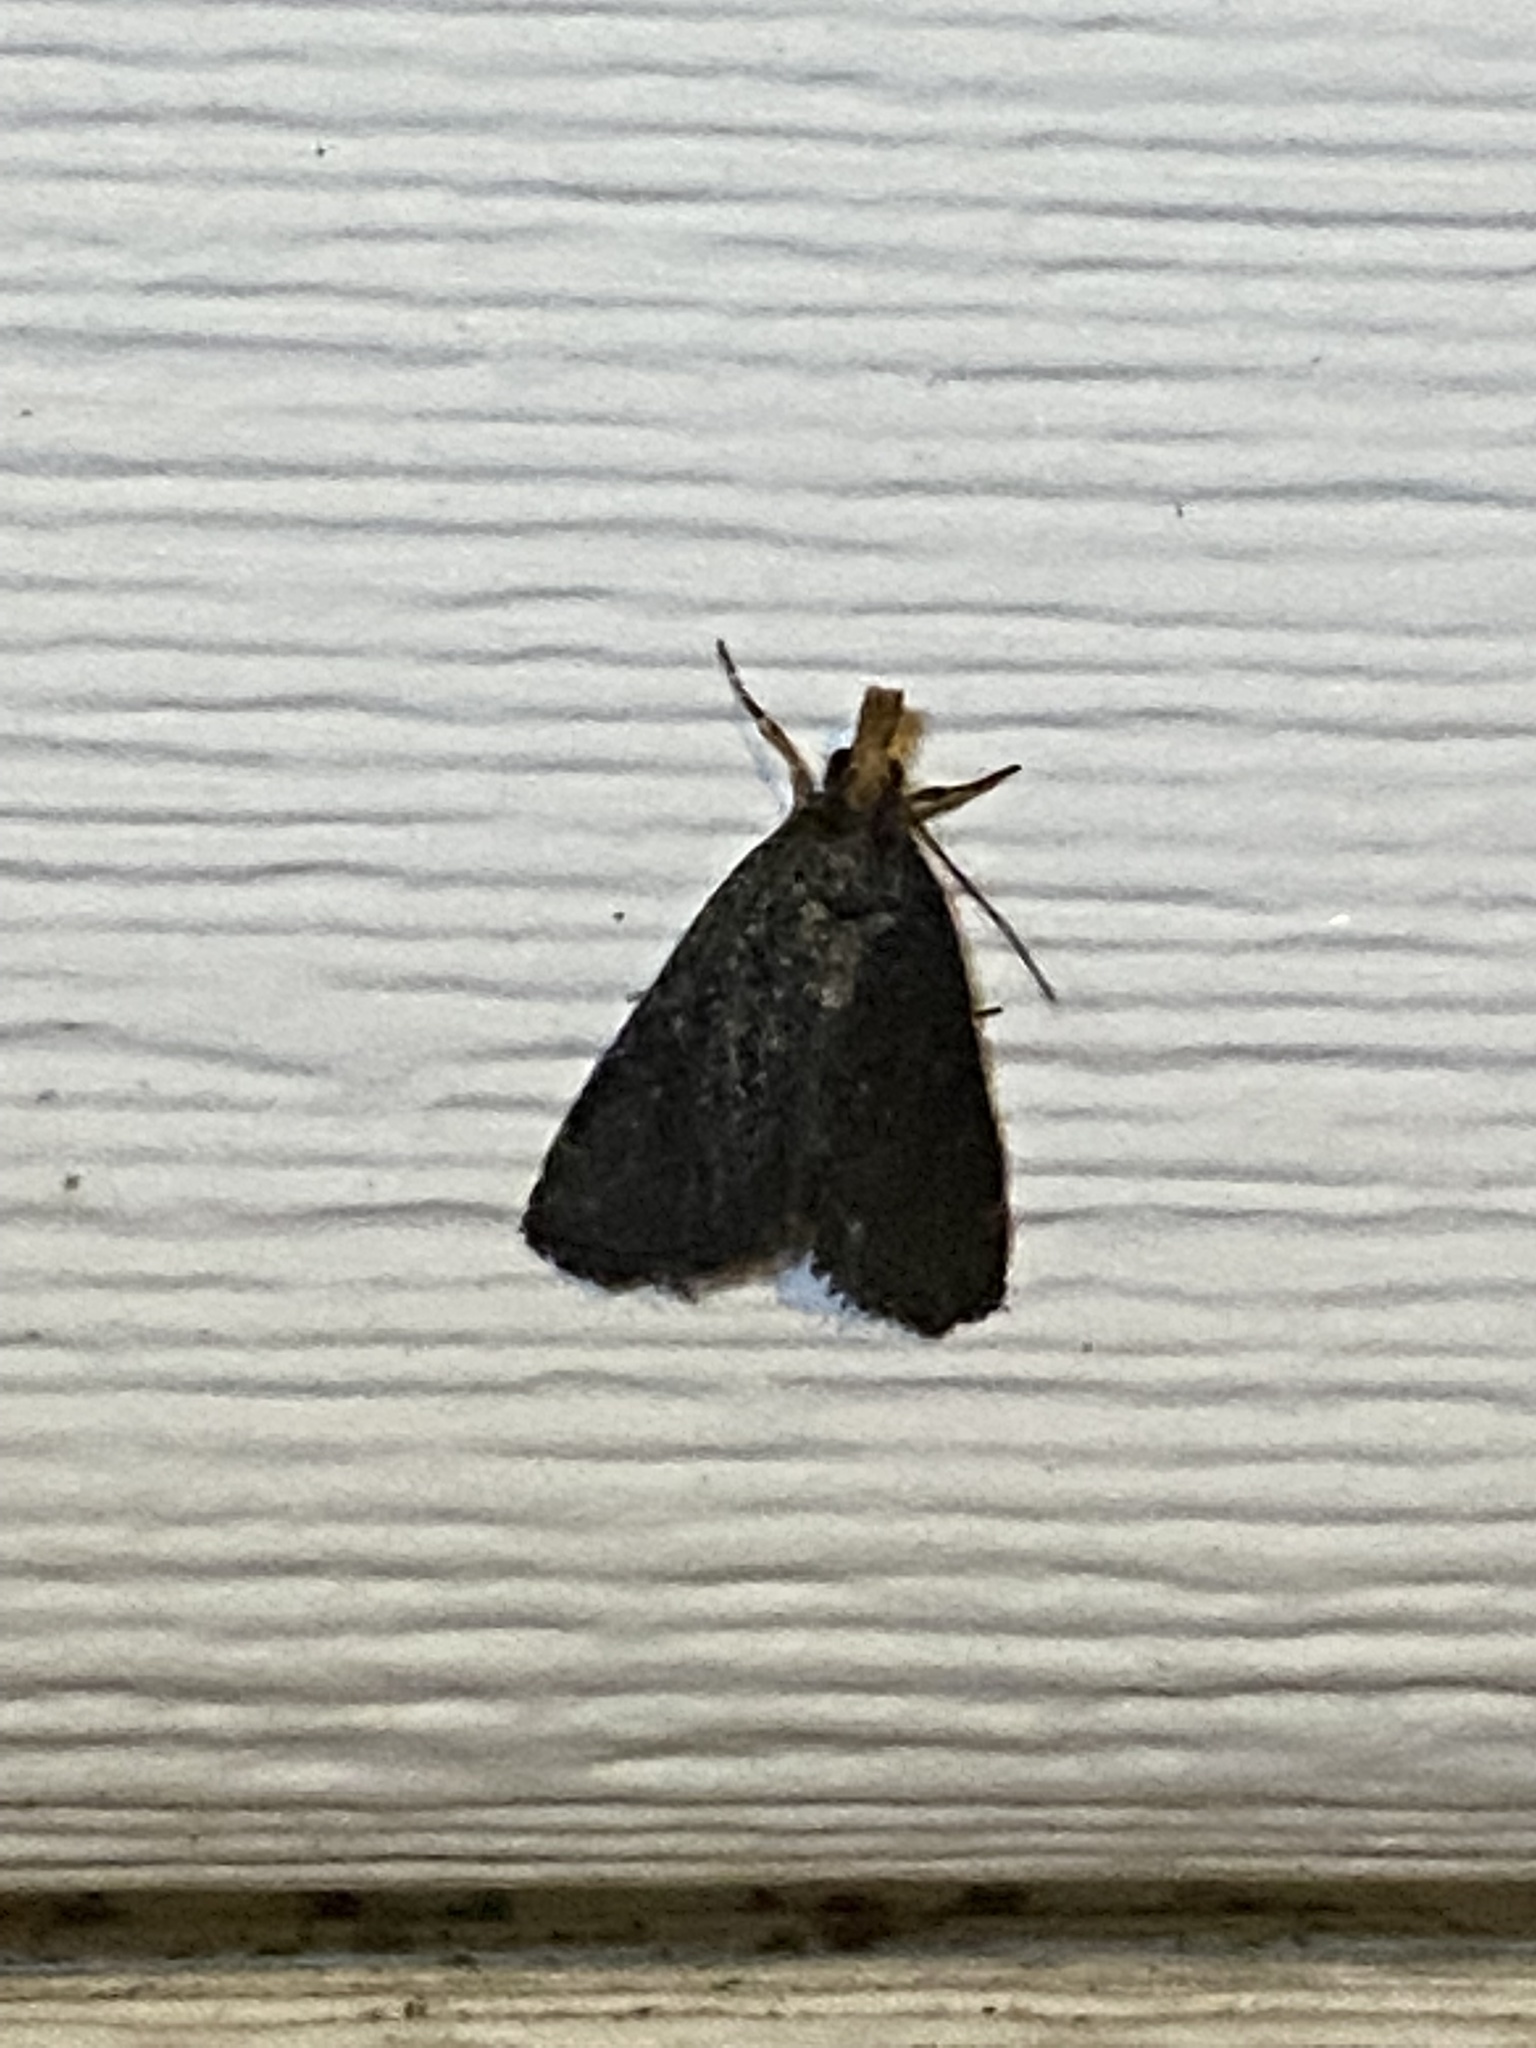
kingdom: Animalia
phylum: Arthropoda
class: Insecta
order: Lepidoptera
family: Crambidae
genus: Pyrausta
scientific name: Pyrausta merrickalis
